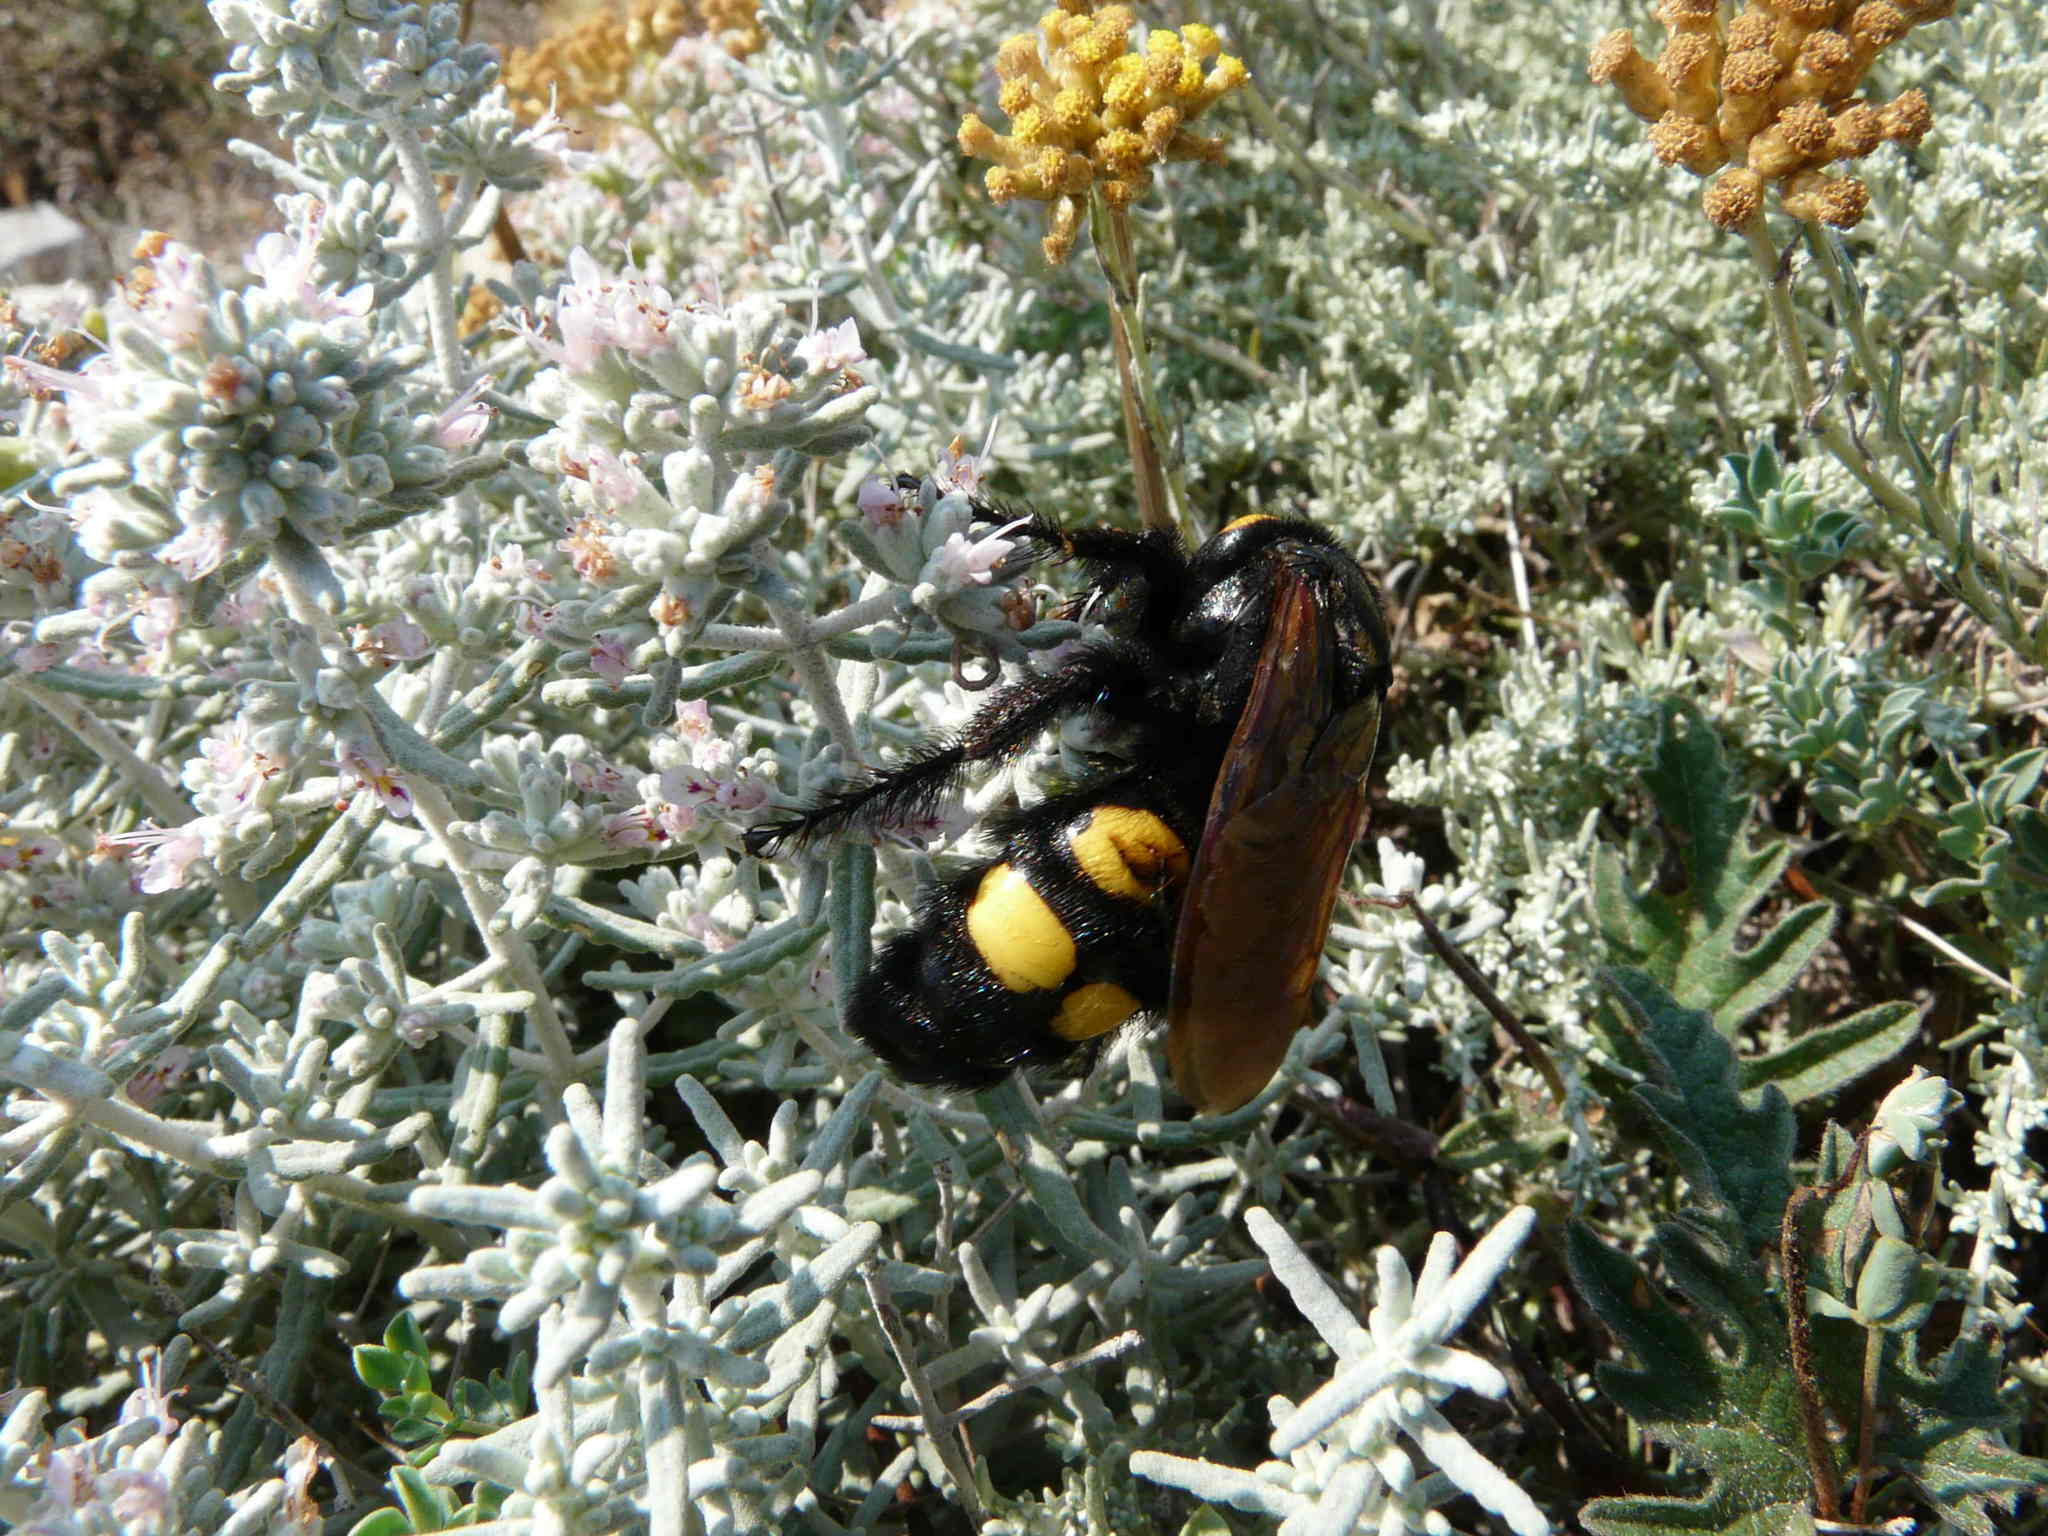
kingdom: Animalia
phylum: Arthropoda
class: Insecta
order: Hymenoptera
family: Scoliidae
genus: Megascolia
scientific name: Megascolia maculata
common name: Mammoth wasp
